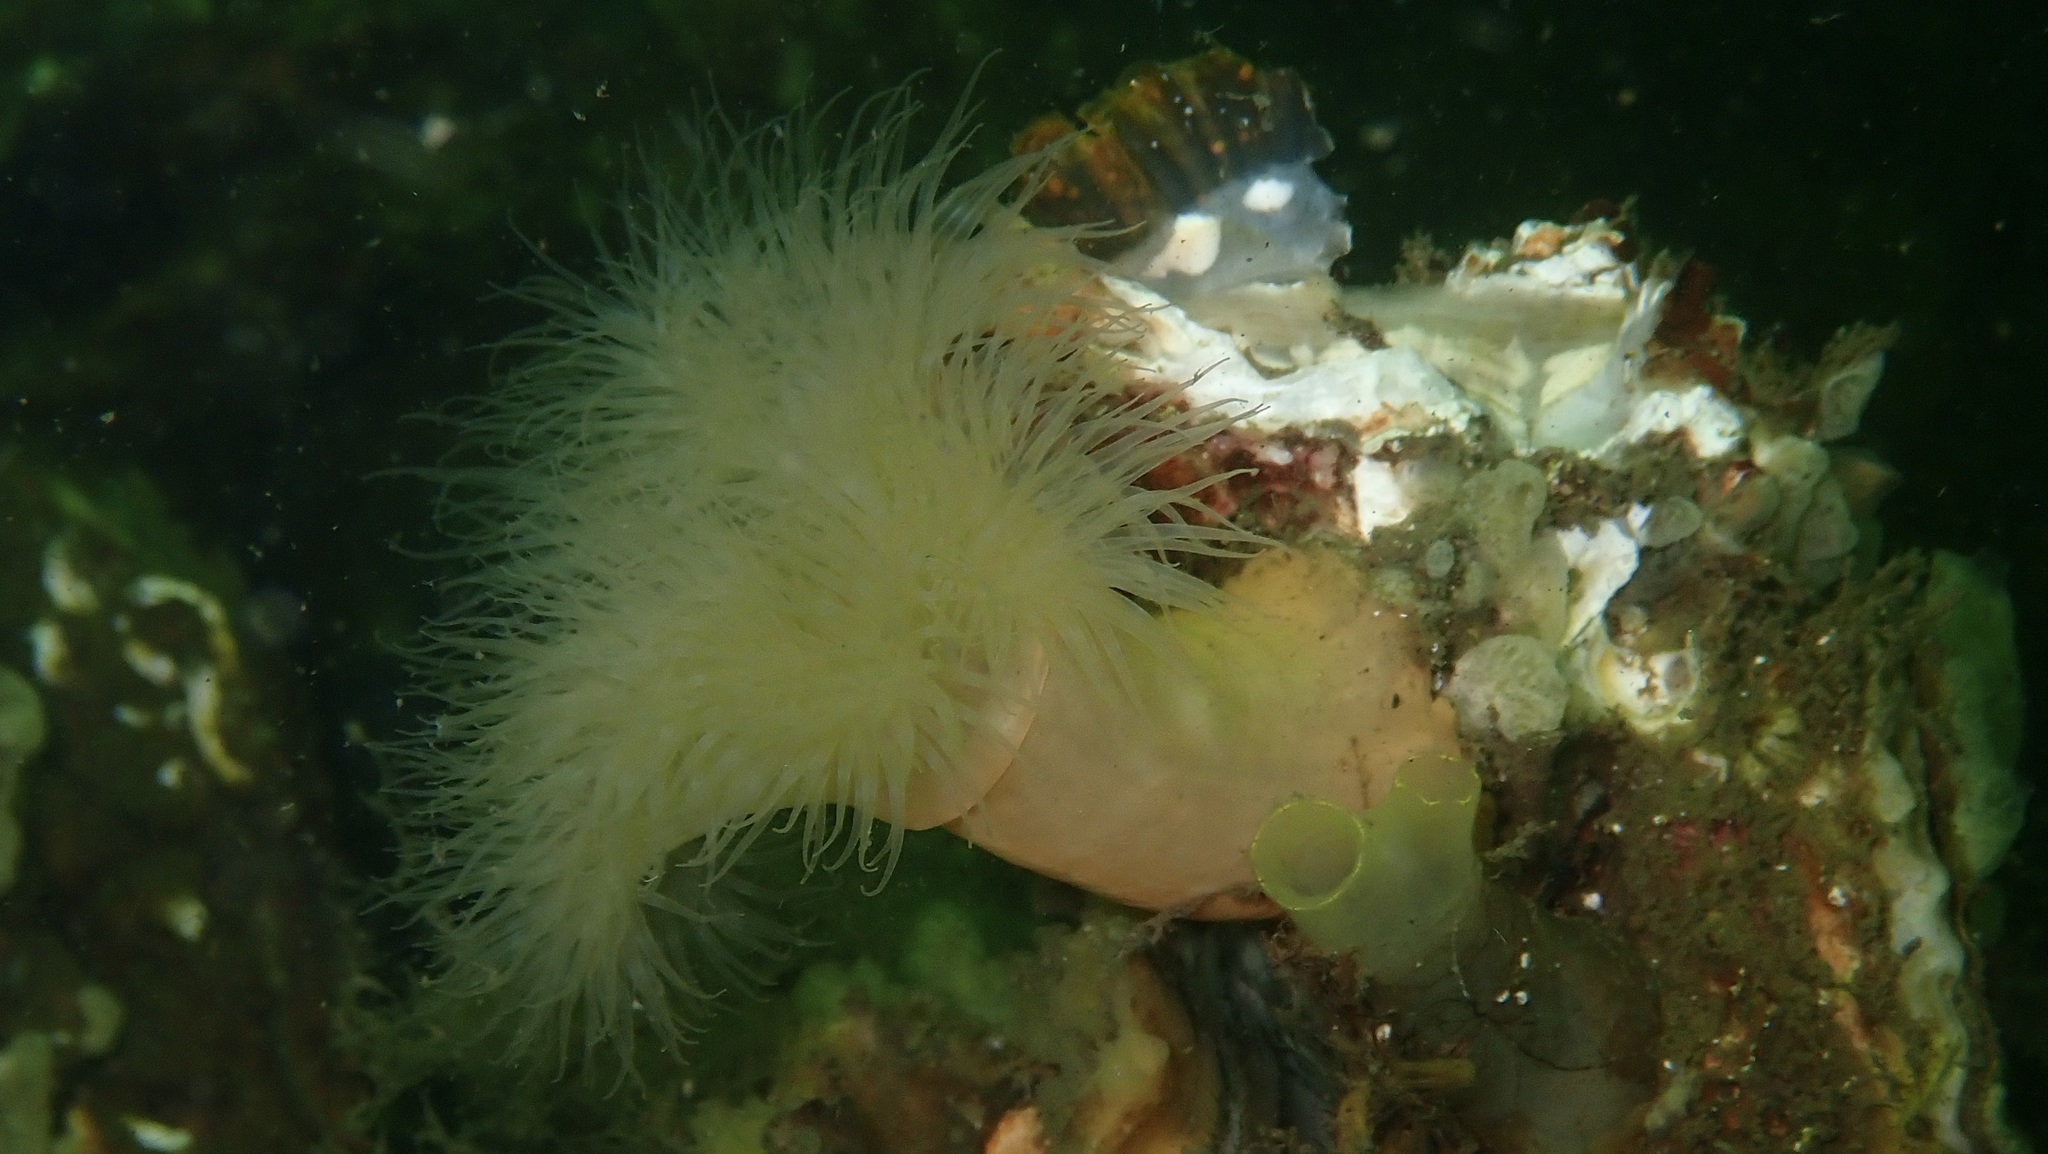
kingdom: Animalia
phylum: Cnidaria
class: Anthozoa
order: Actiniaria
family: Metridiidae
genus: Metridium
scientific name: Metridium senile
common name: Clonal plumose anemone
